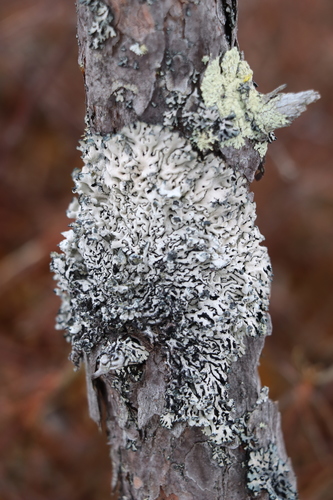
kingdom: Fungi
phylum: Ascomycota
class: Lecanoromycetes
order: Lecanorales
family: Parmeliaceae
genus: Hypogymnia
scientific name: Hypogymnia physodes
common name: Dark crottle
